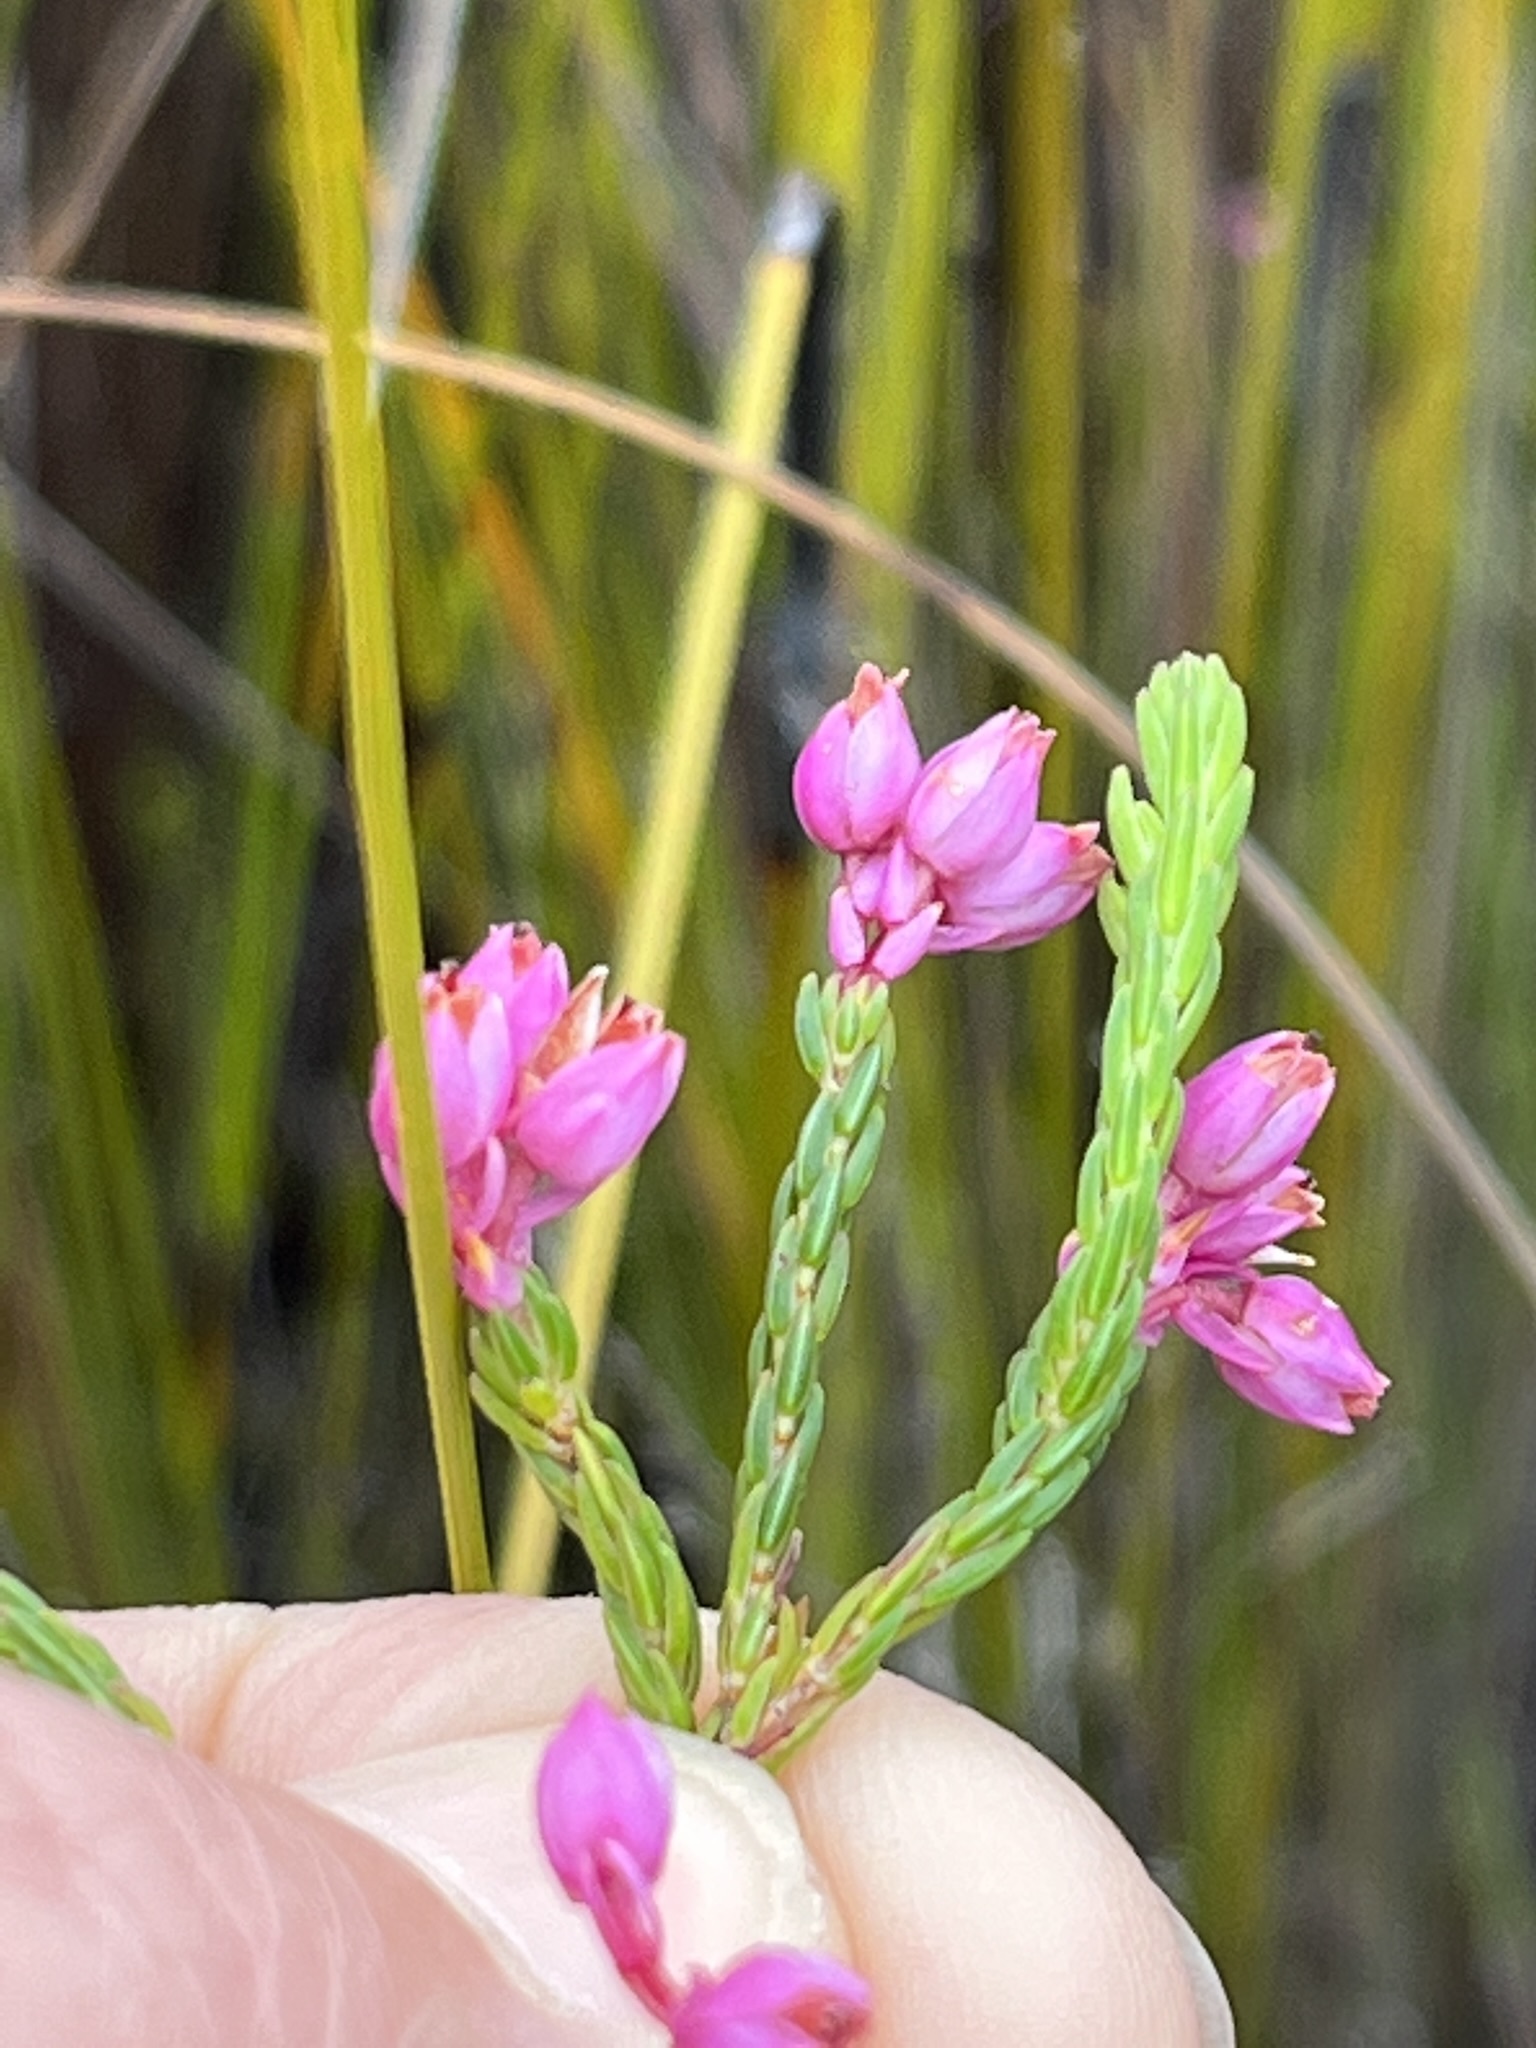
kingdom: Plantae
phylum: Tracheophyta
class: Magnoliopsida
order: Ericales
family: Ericaceae
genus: Erica
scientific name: Erica palliiflora
